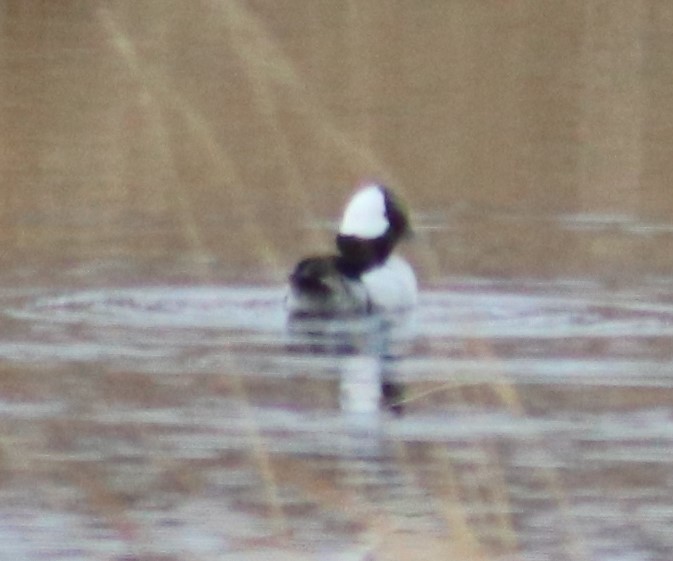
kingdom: Animalia
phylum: Chordata
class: Aves
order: Anseriformes
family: Anatidae
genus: Bucephala
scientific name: Bucephala albeola
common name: Bufflehead
